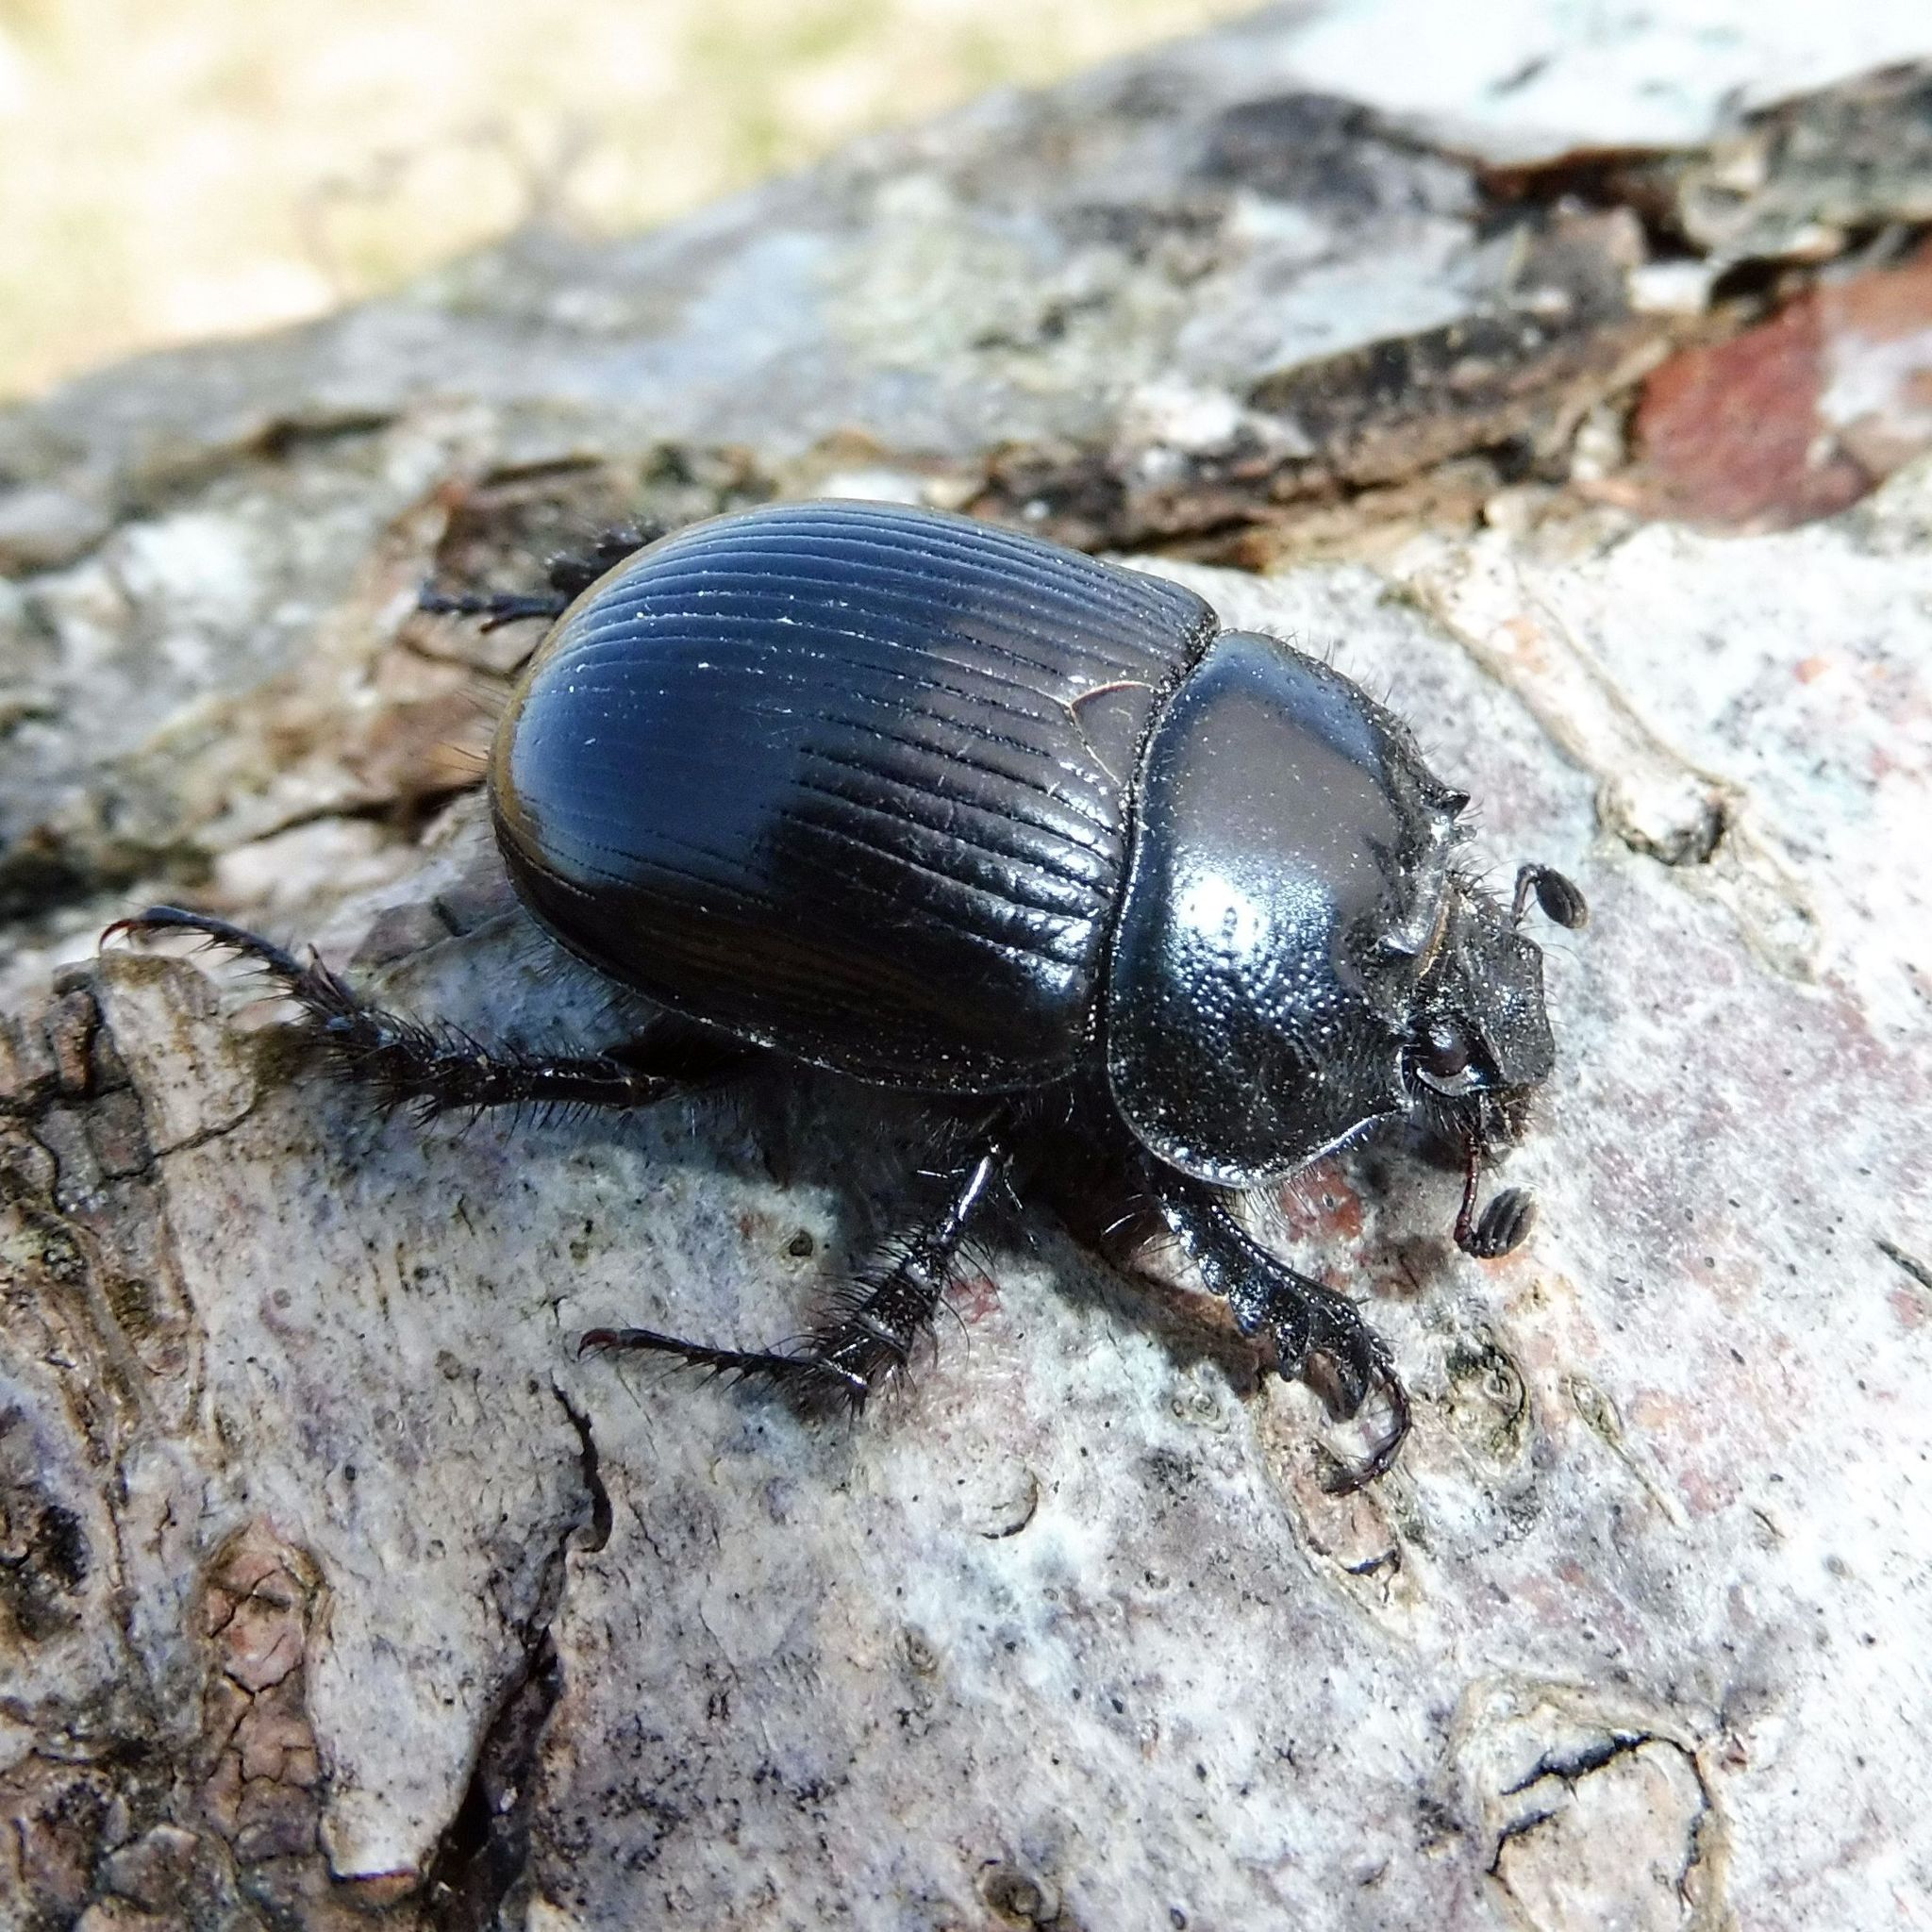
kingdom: Animalia
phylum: Arthropoda
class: Insecta
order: Coleoptera
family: Geotrupidae
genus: Typhaeus
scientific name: Typhaeus typhoeus
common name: Minotaur beetle
